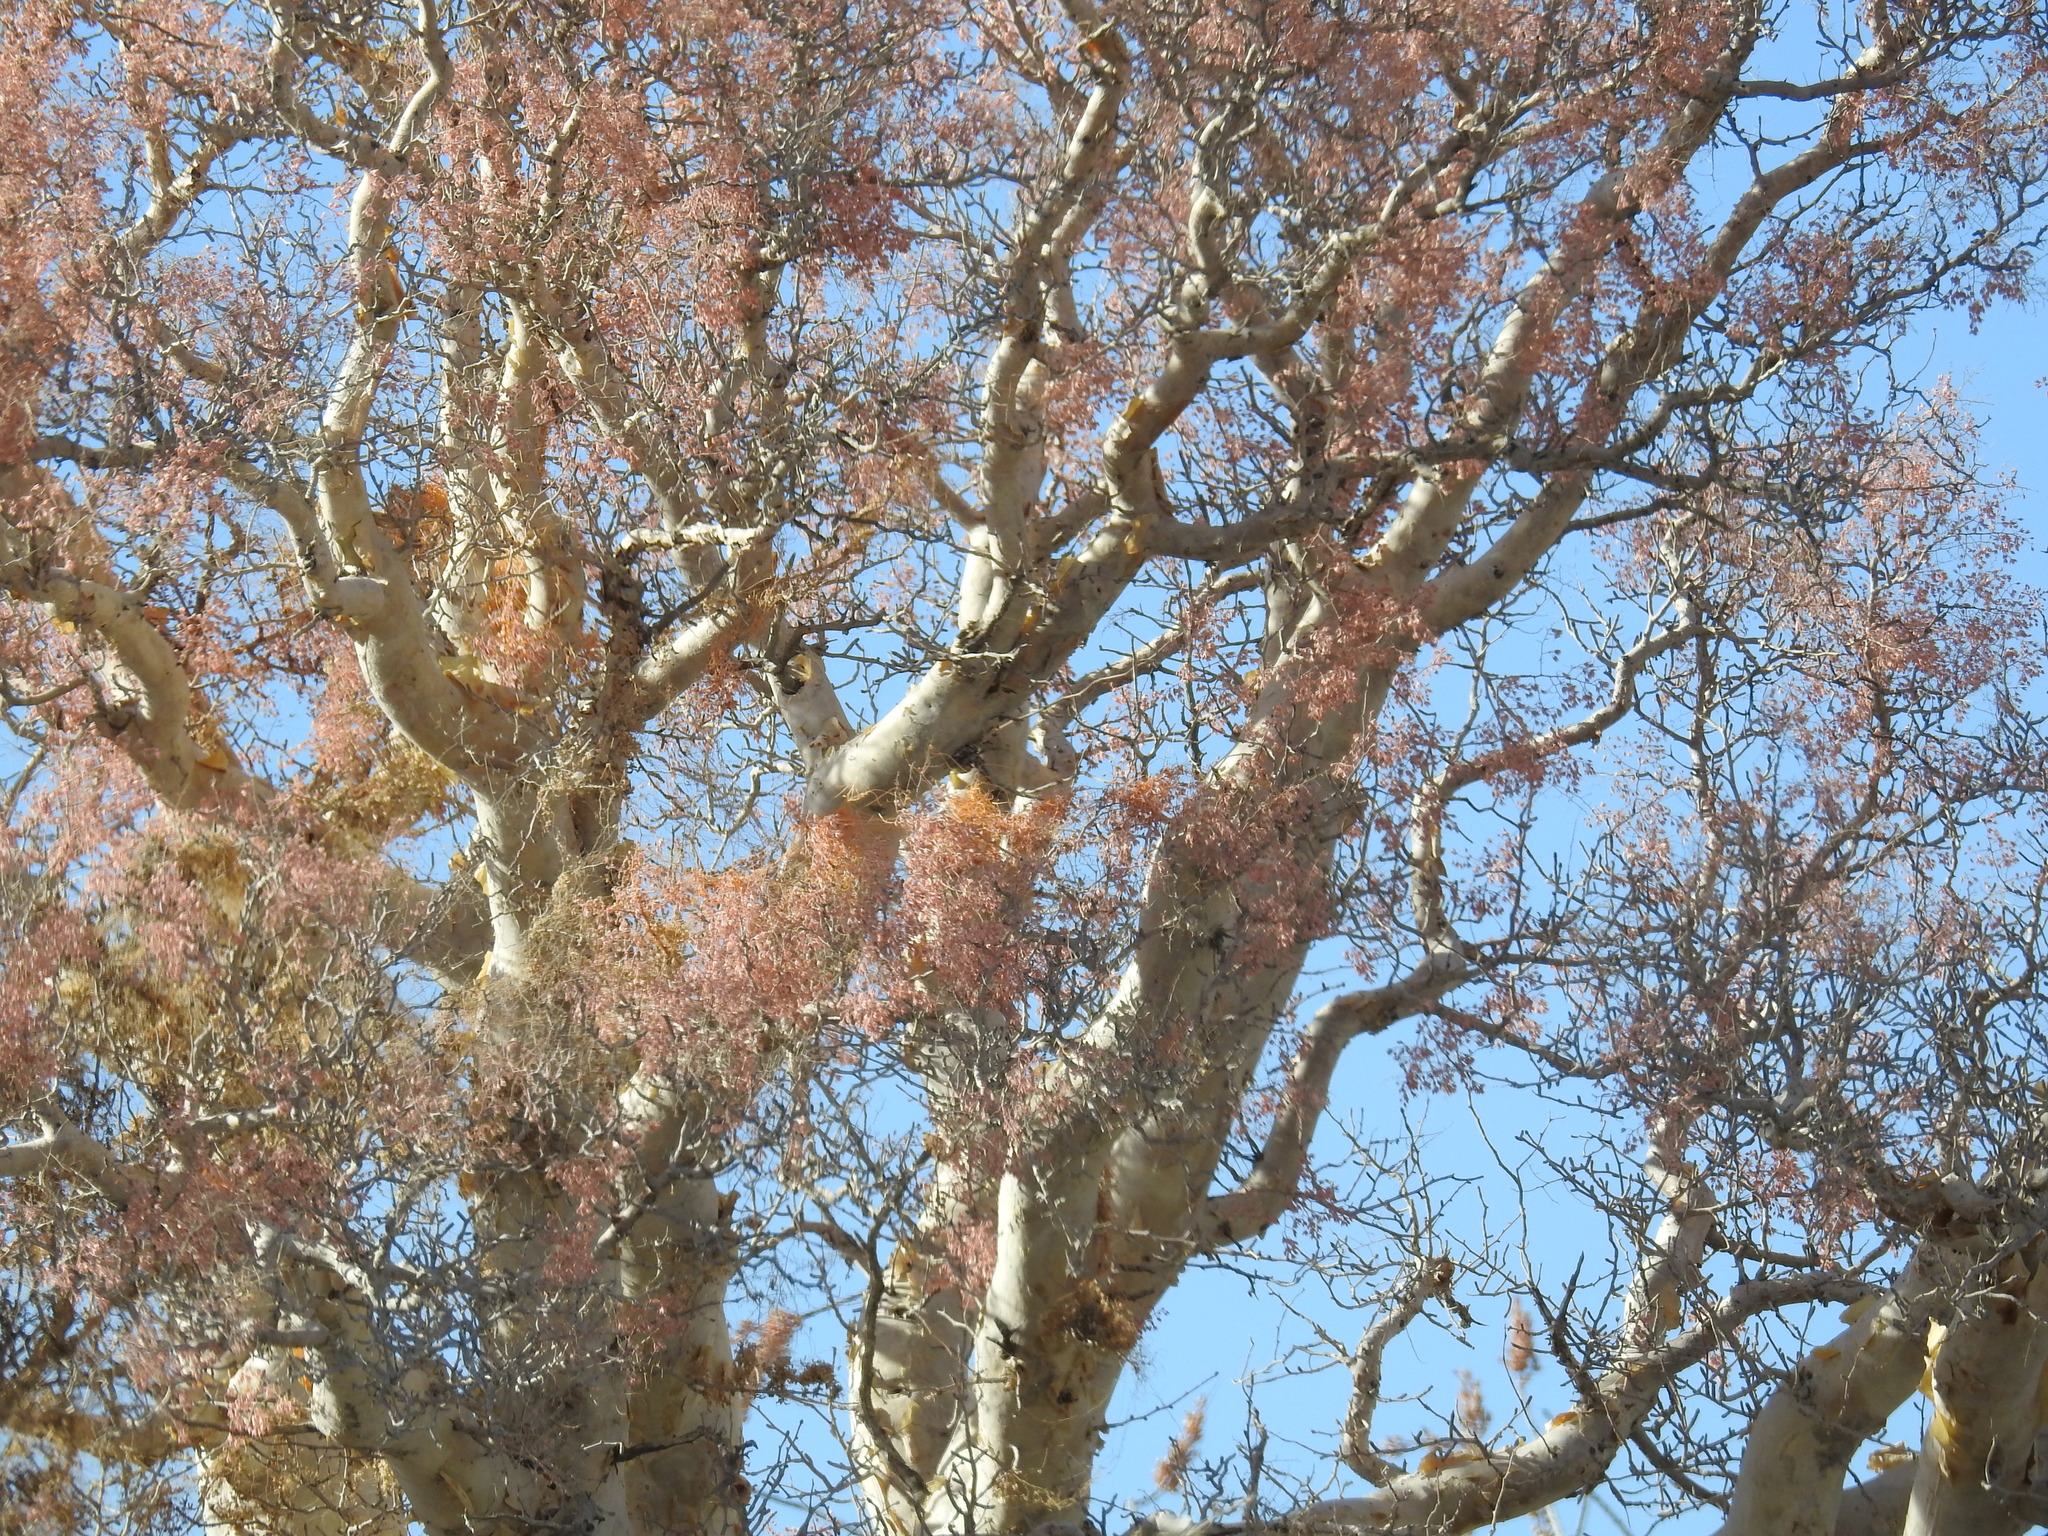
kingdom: Plantae
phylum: Tracheophyta
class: Magnoliopsida
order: Sapindales
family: Anacardiaceae
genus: Pachycormus
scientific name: Pachycormus discolor
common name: Succulent elephant trees
